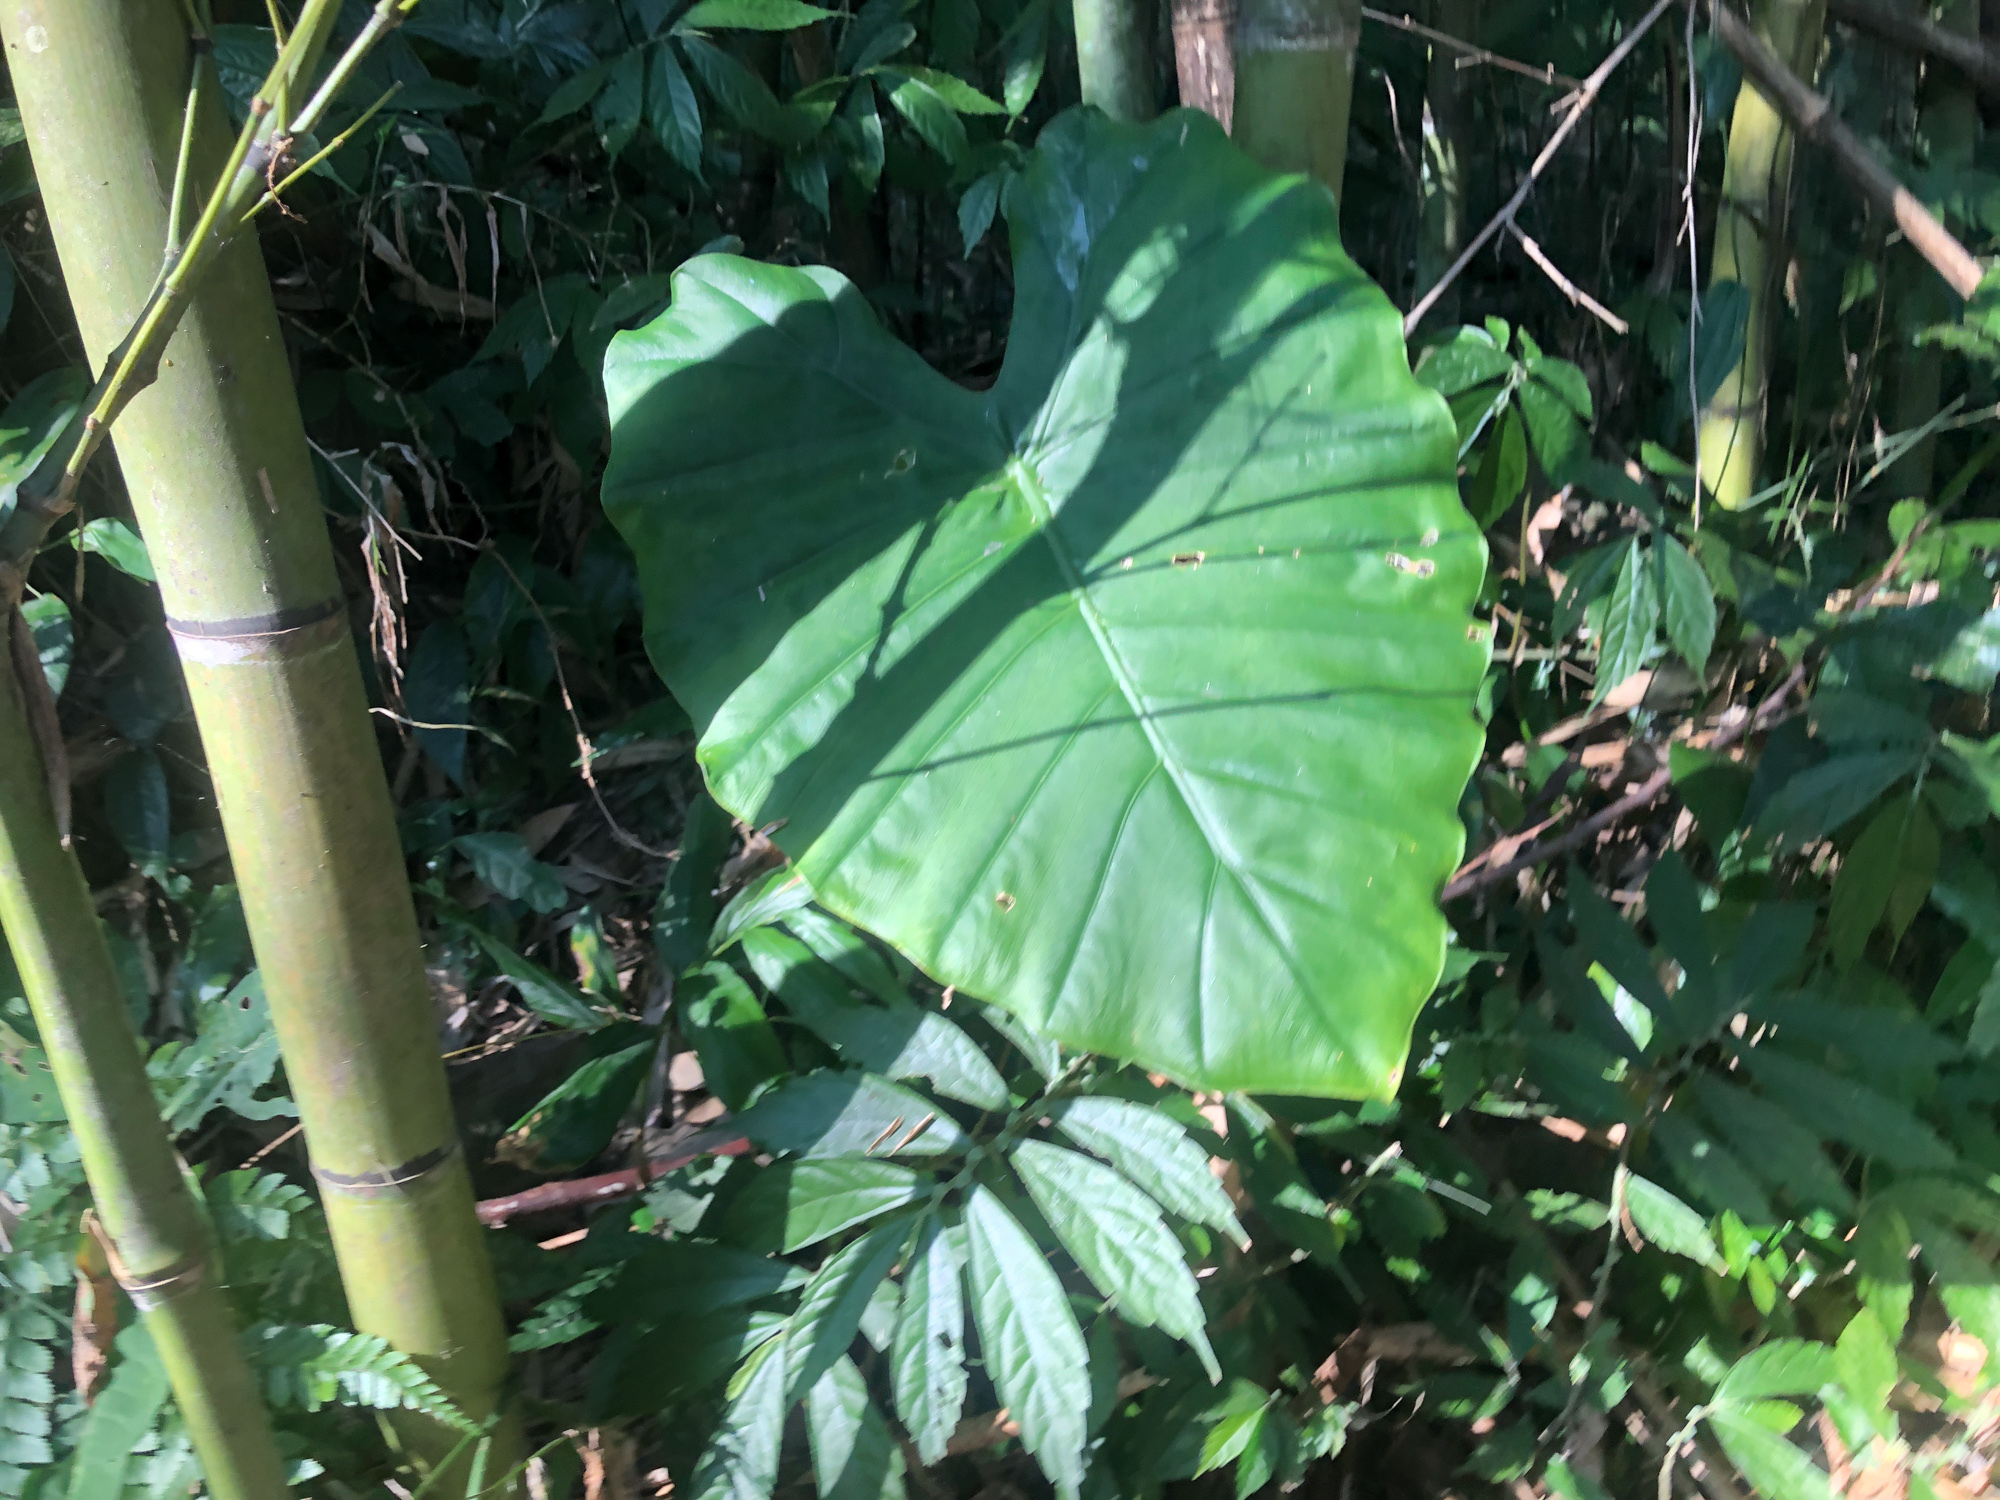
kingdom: Plantae
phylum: Tracheophyta
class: Liliopsida
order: Alismatales
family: Araceae
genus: Alocasia
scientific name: Alocasia odora
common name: Asian taro
